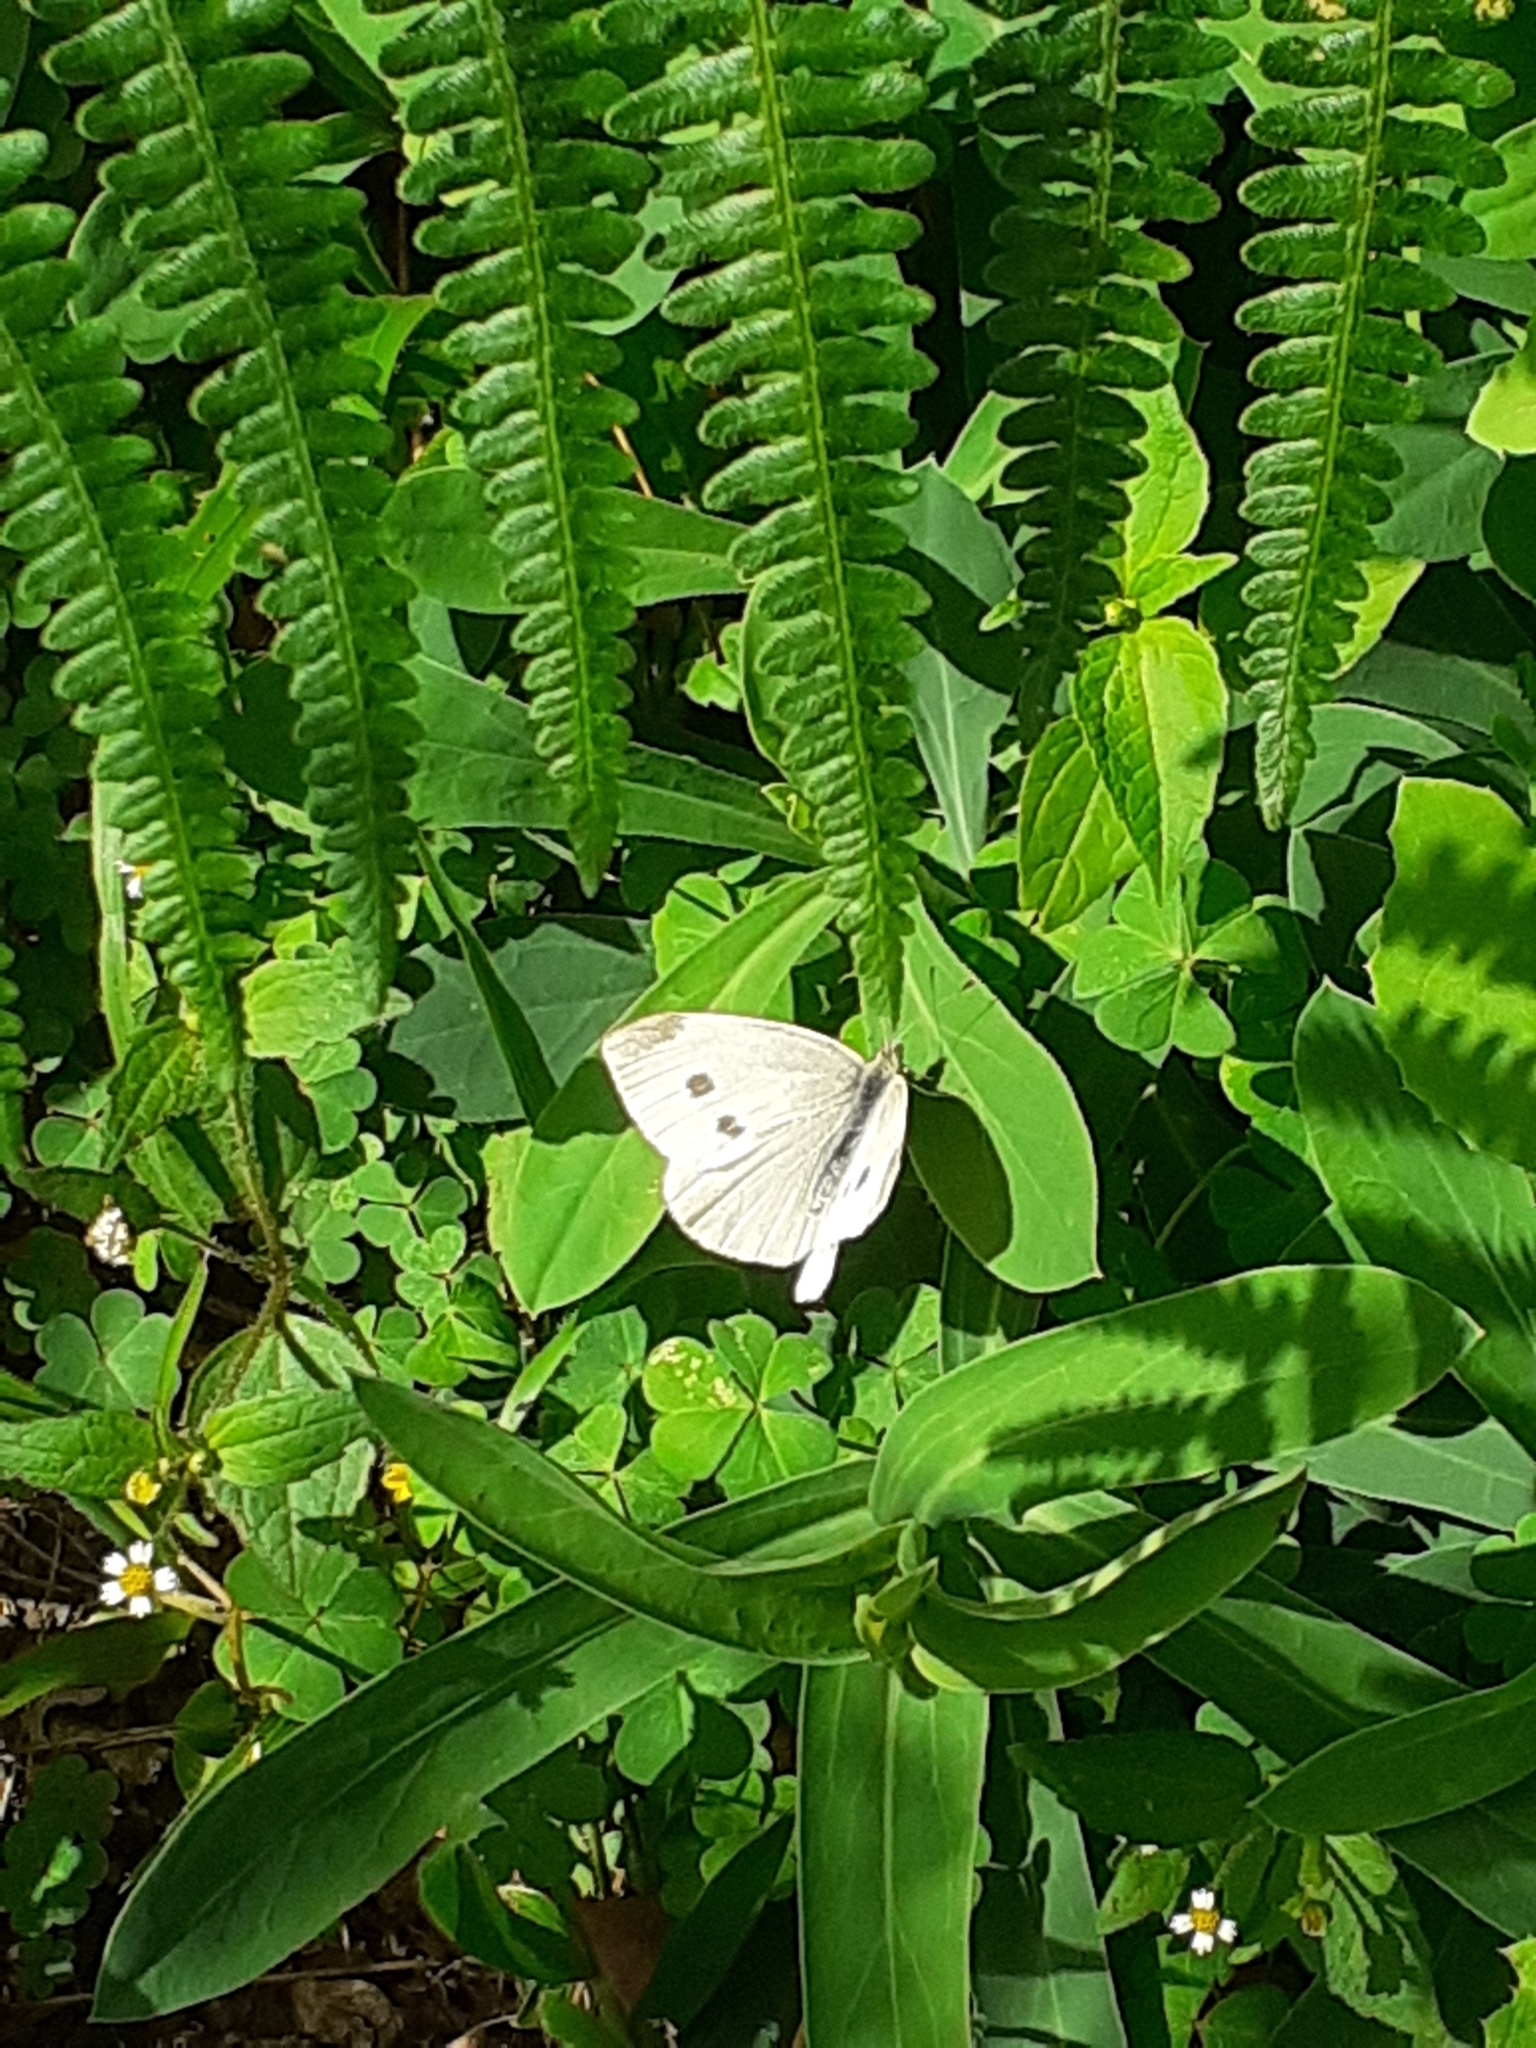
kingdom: Animalia
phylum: Arthropoda
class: Insecta
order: Lepidoptera
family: Pieridae
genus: Pieris
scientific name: Pieris rapae
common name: Small white
